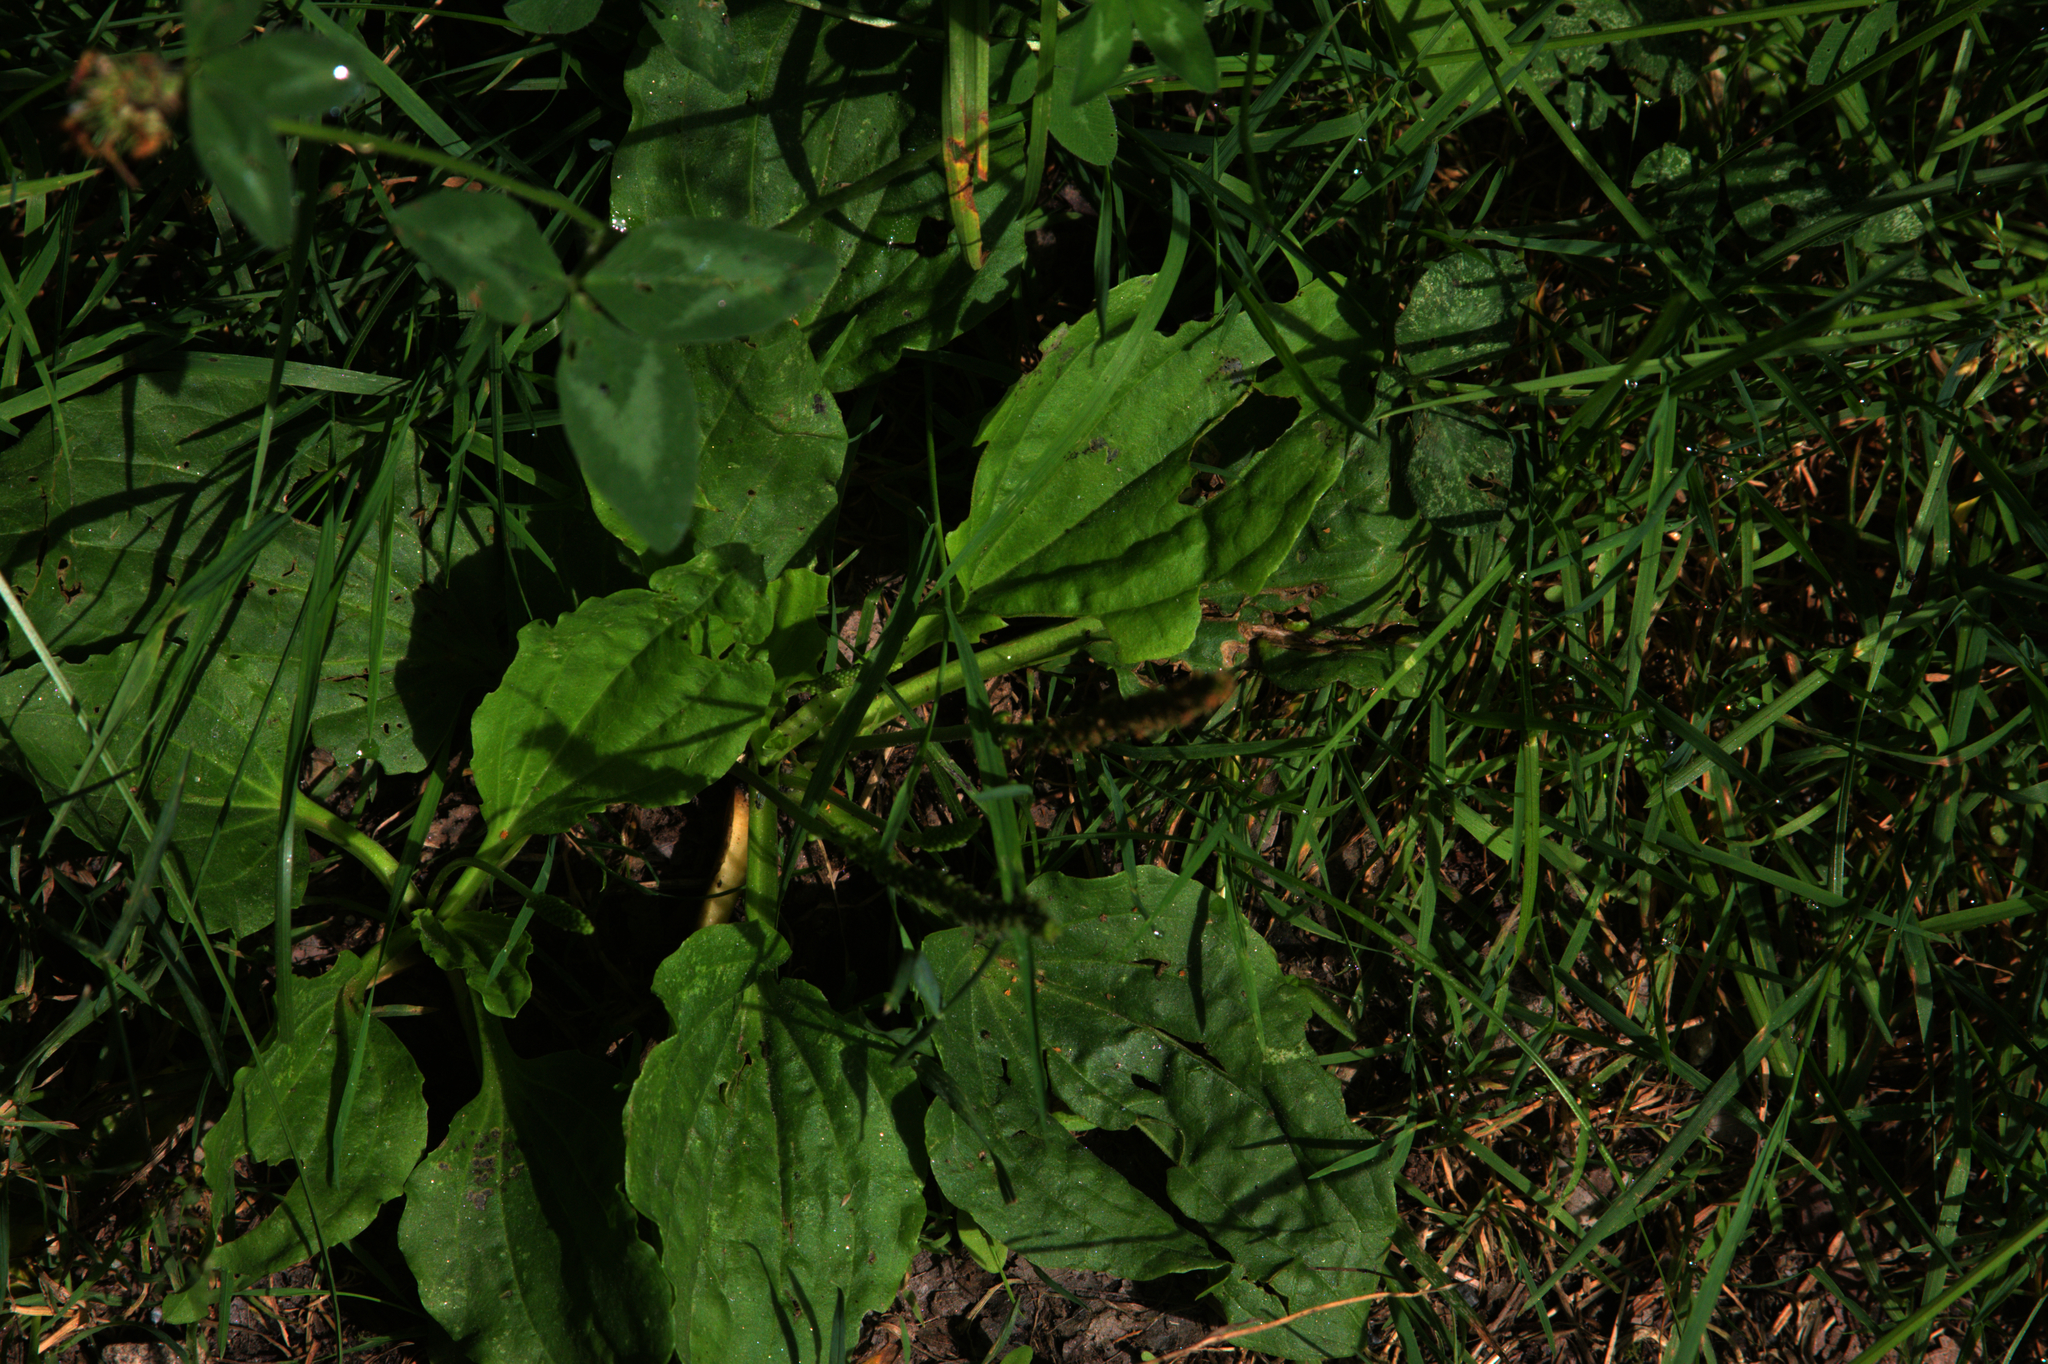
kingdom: Plantae
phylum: Tracheophyta
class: Magnoliopsida
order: Lamiales
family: Plantaginaceae
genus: Plantago
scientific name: Plantago major
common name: Common plantain
